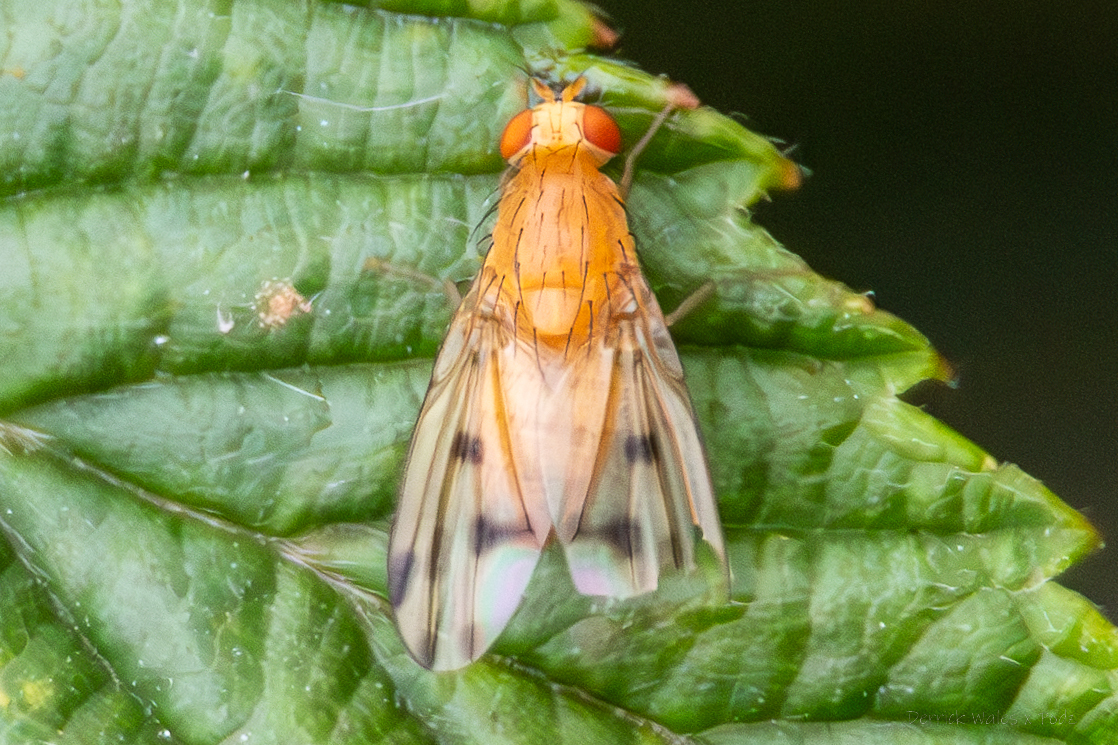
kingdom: Animalia
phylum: Arthropoda
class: Insecta
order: Diptera
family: Lauxaniidae
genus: Homoneura
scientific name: Homoneura incerta
